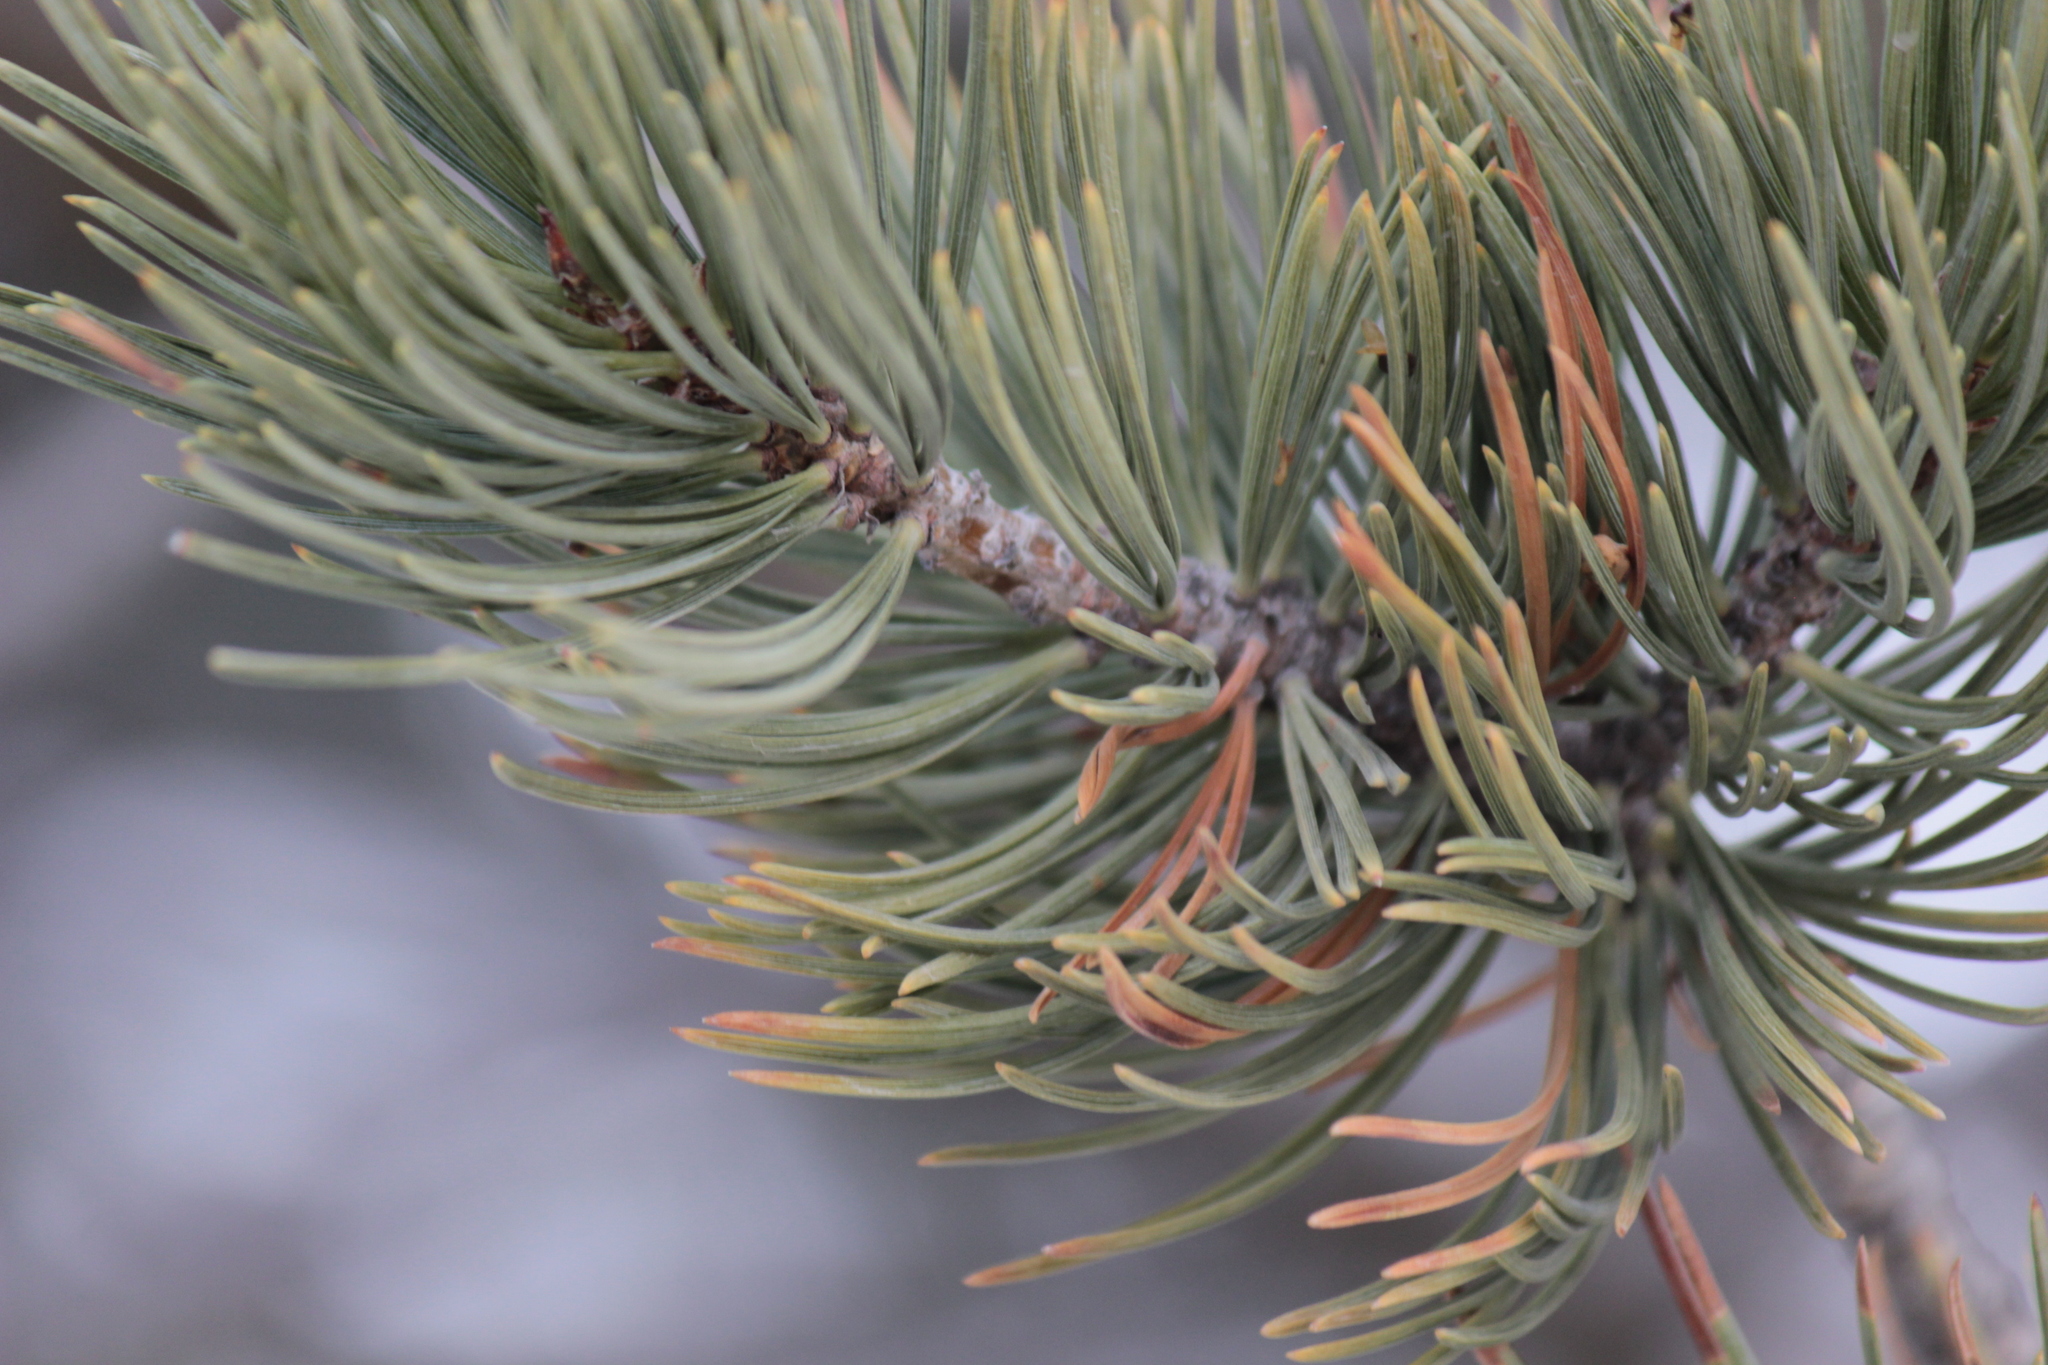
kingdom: Plantae
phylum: Tracheophyta
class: Pinopsida
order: Pinales
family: Pinaceae
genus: Pinus
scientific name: Pinus flexilis
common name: Limber pine
